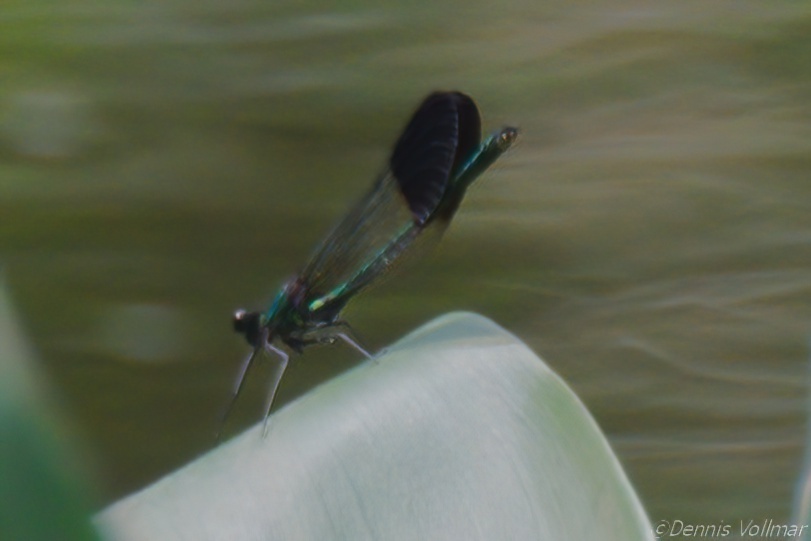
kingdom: Animalia
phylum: Arthropoda
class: Insecta
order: Odonata
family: Calopterygidae
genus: Calopteryx
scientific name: Calopteryx aequabilis
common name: River jewelwing
